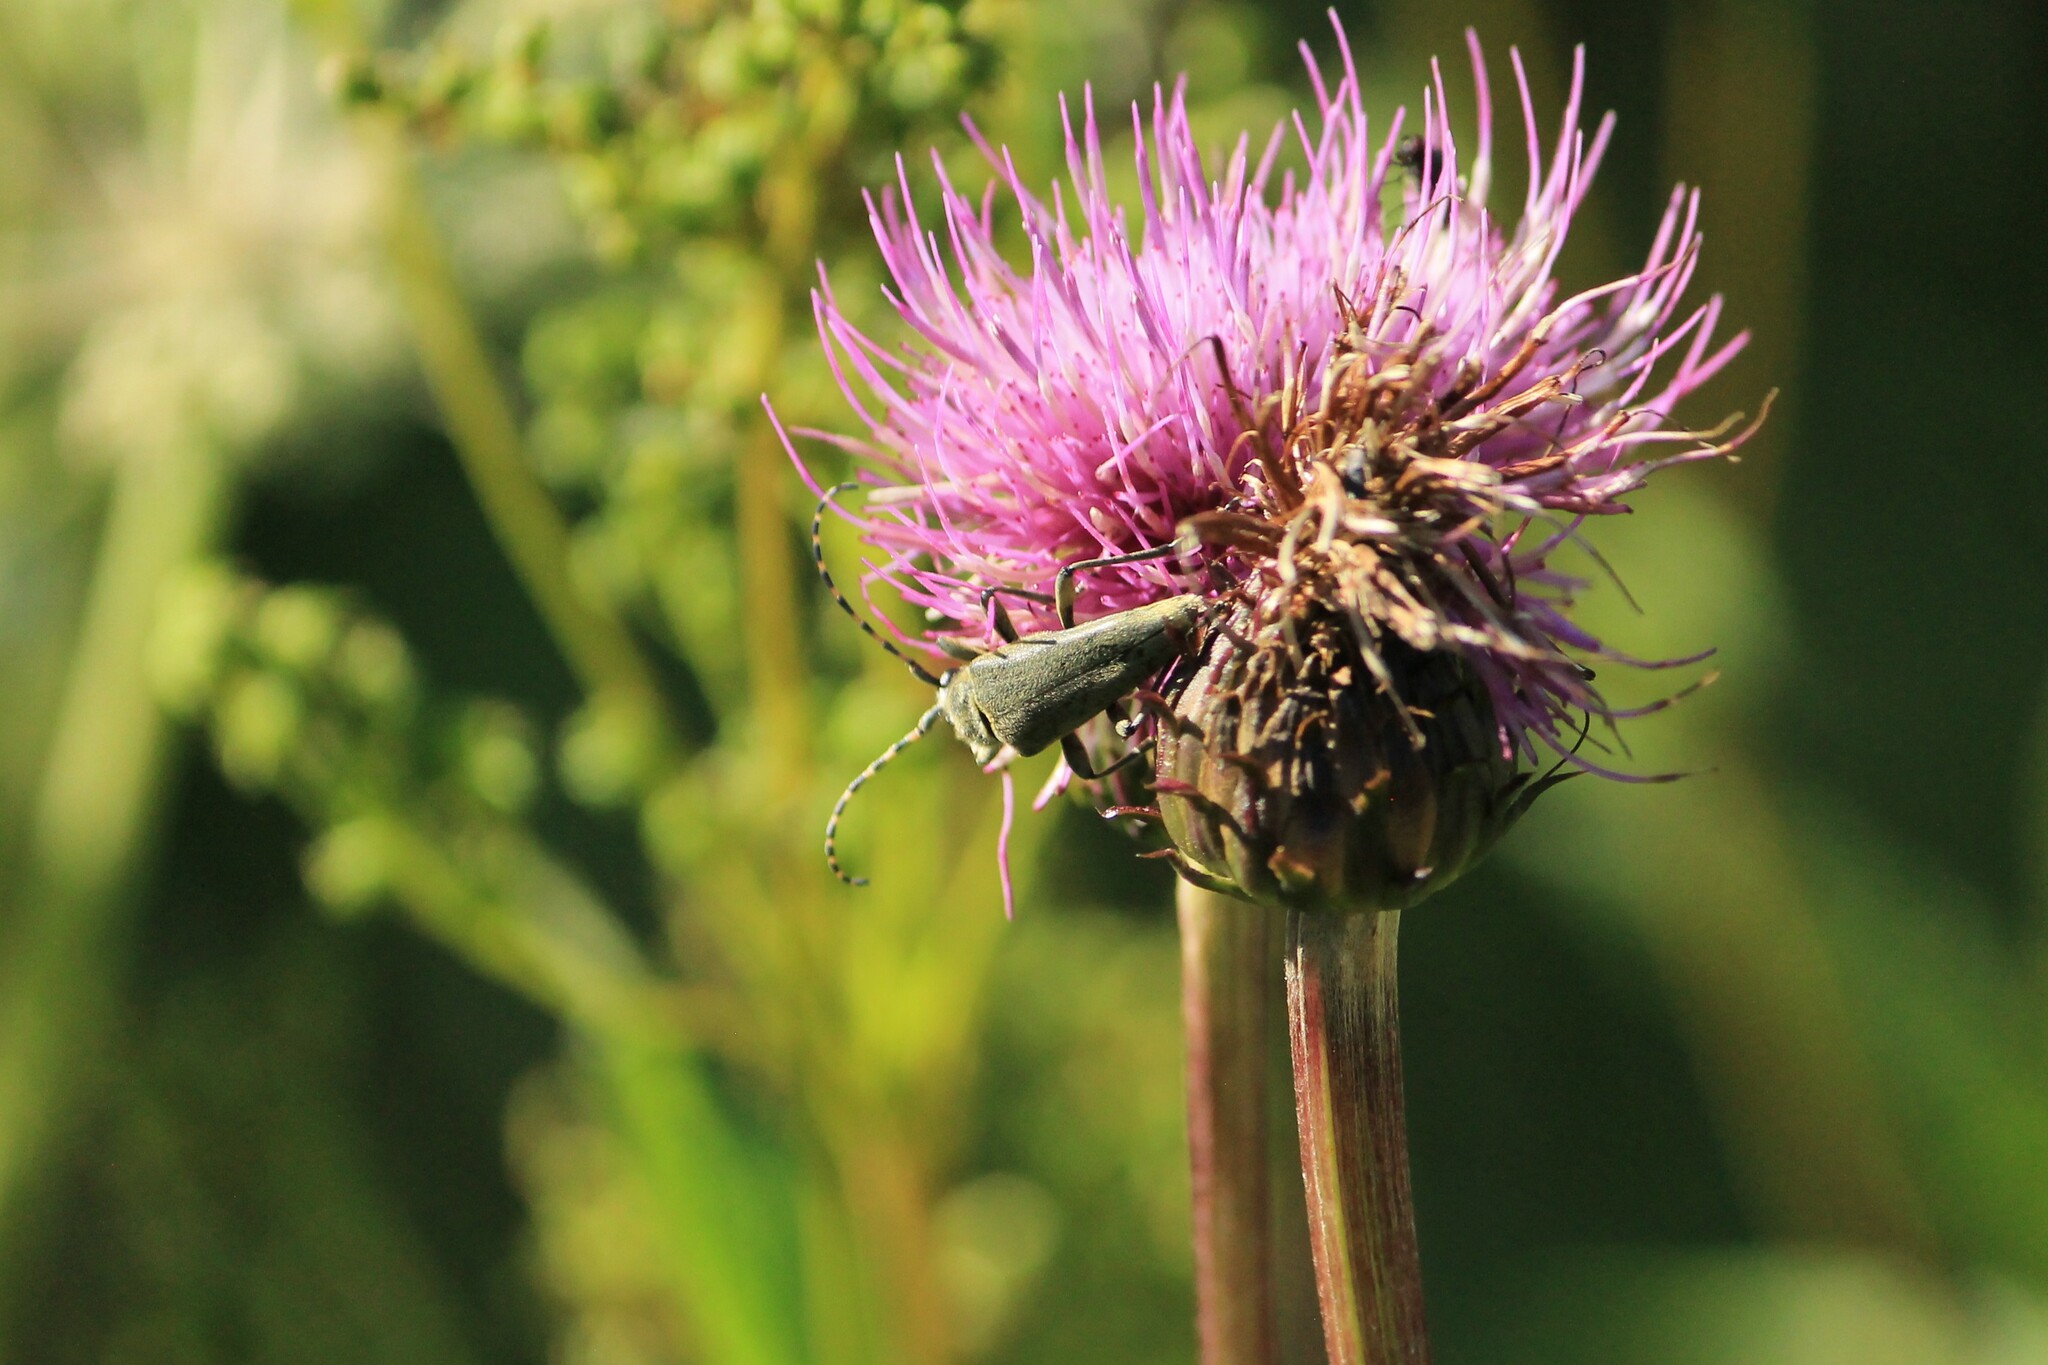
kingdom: Animalia
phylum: Arthropoda
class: Insecta
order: Coleoptera
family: Cerambycidae
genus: Lepturobosca
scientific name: Lepturobosca virens
